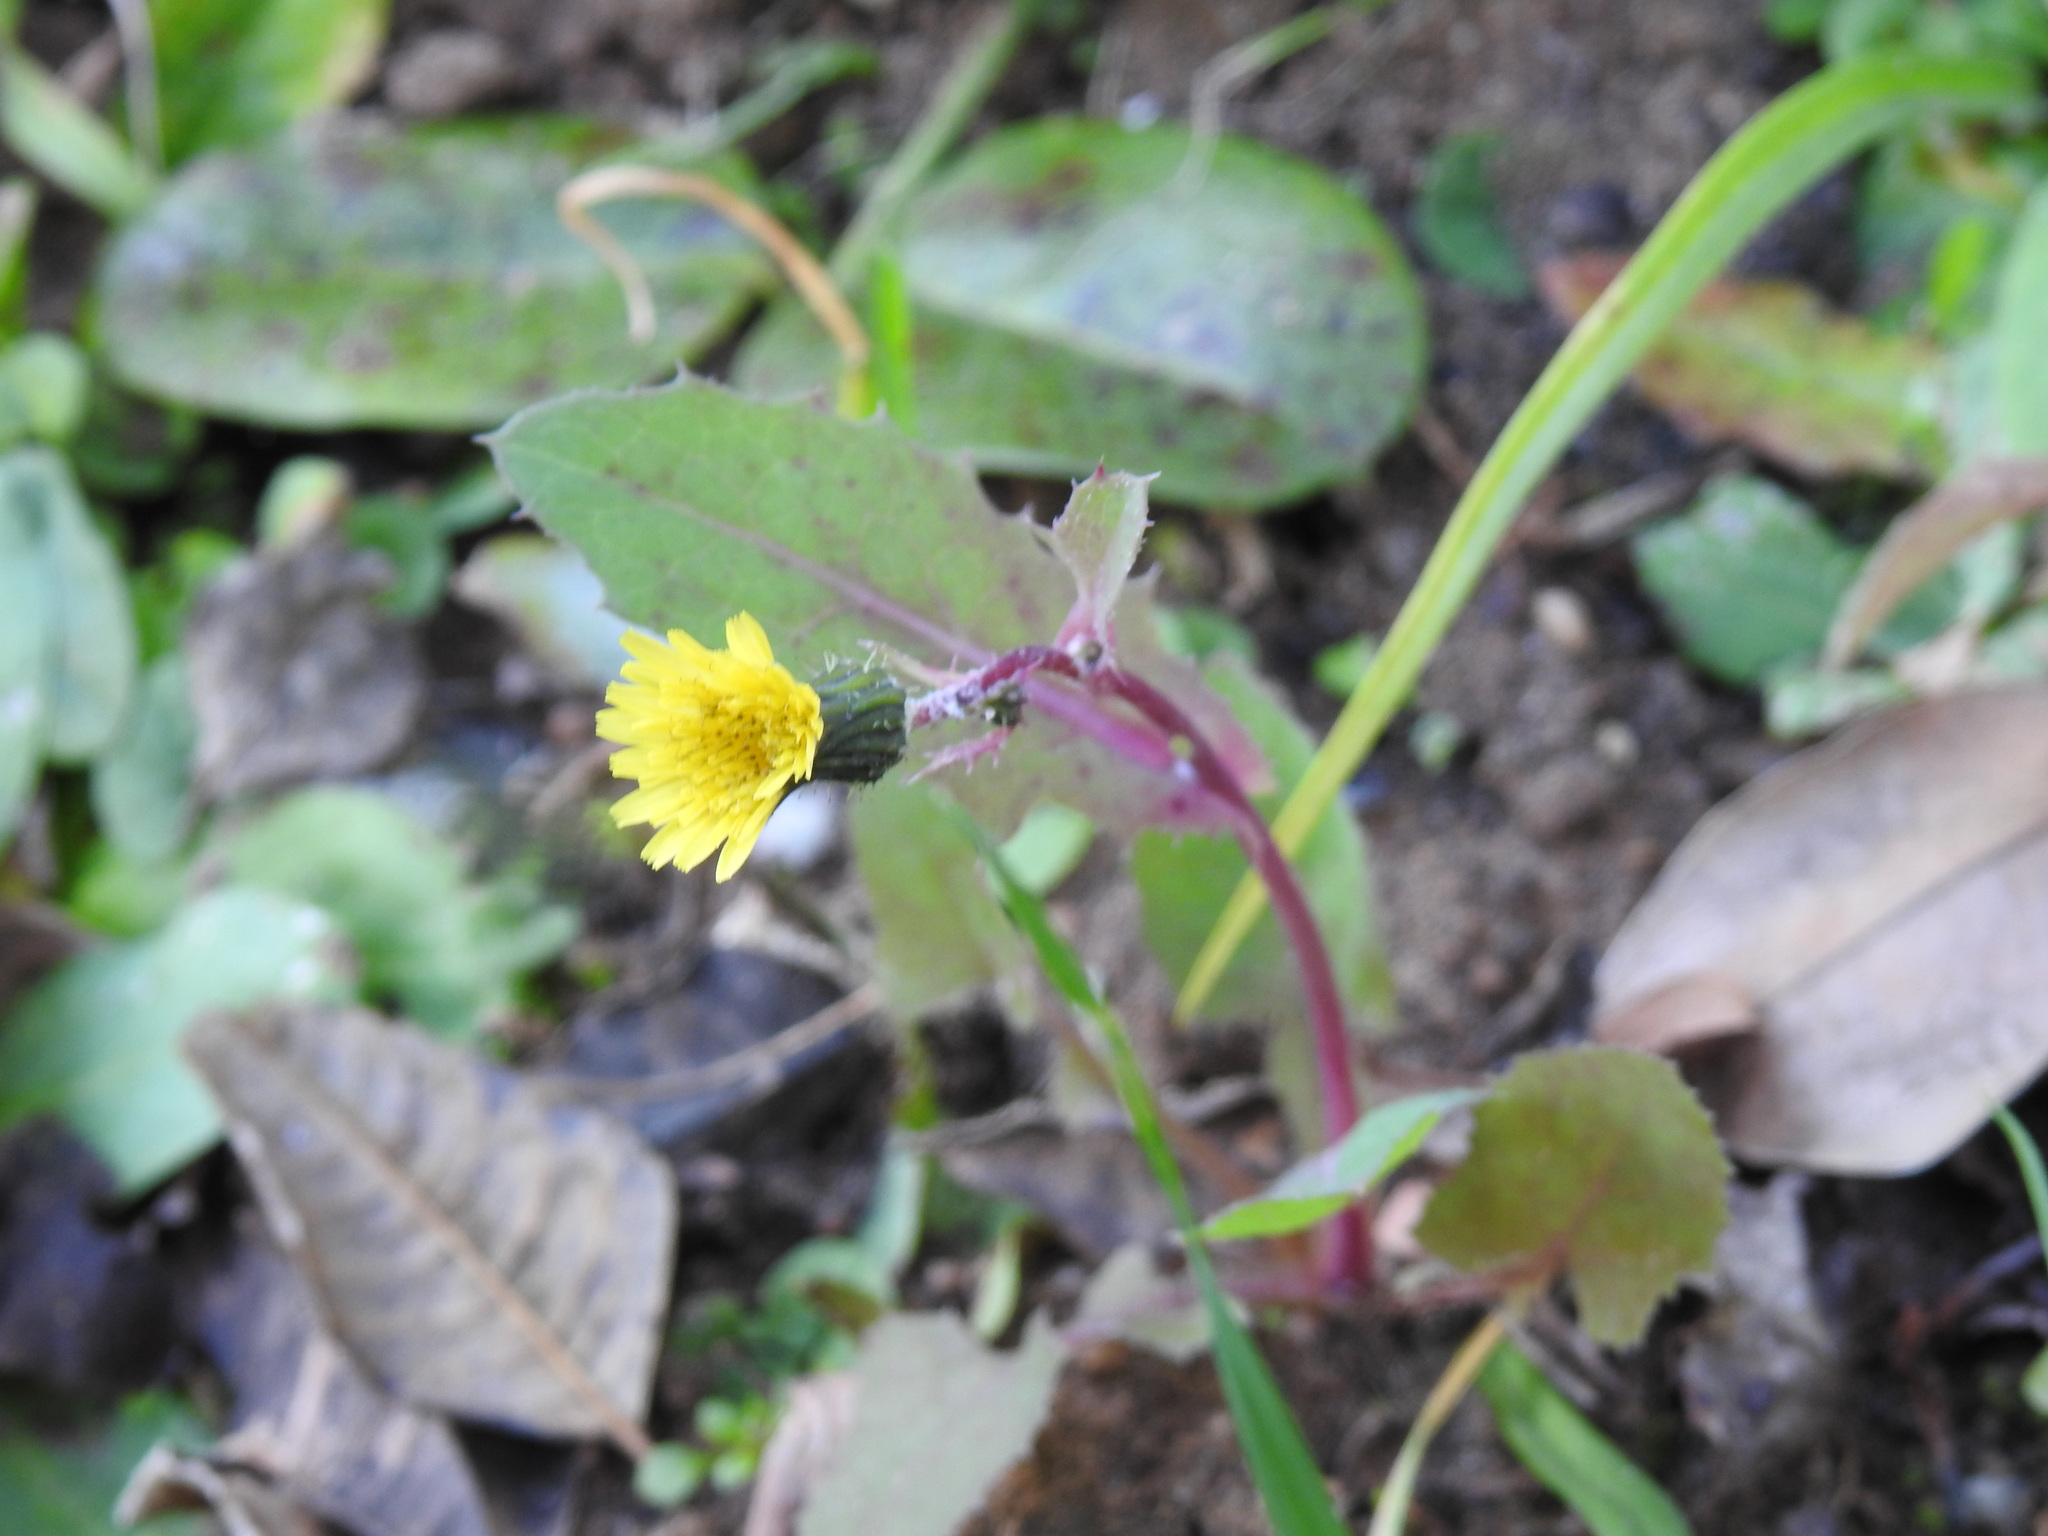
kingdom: Plantae
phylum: Tracheophyta
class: Magnoliopsida
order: Asterales
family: Asteraceae
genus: Sonchus
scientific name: Sonchus oleraceus
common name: Common sowthistle
